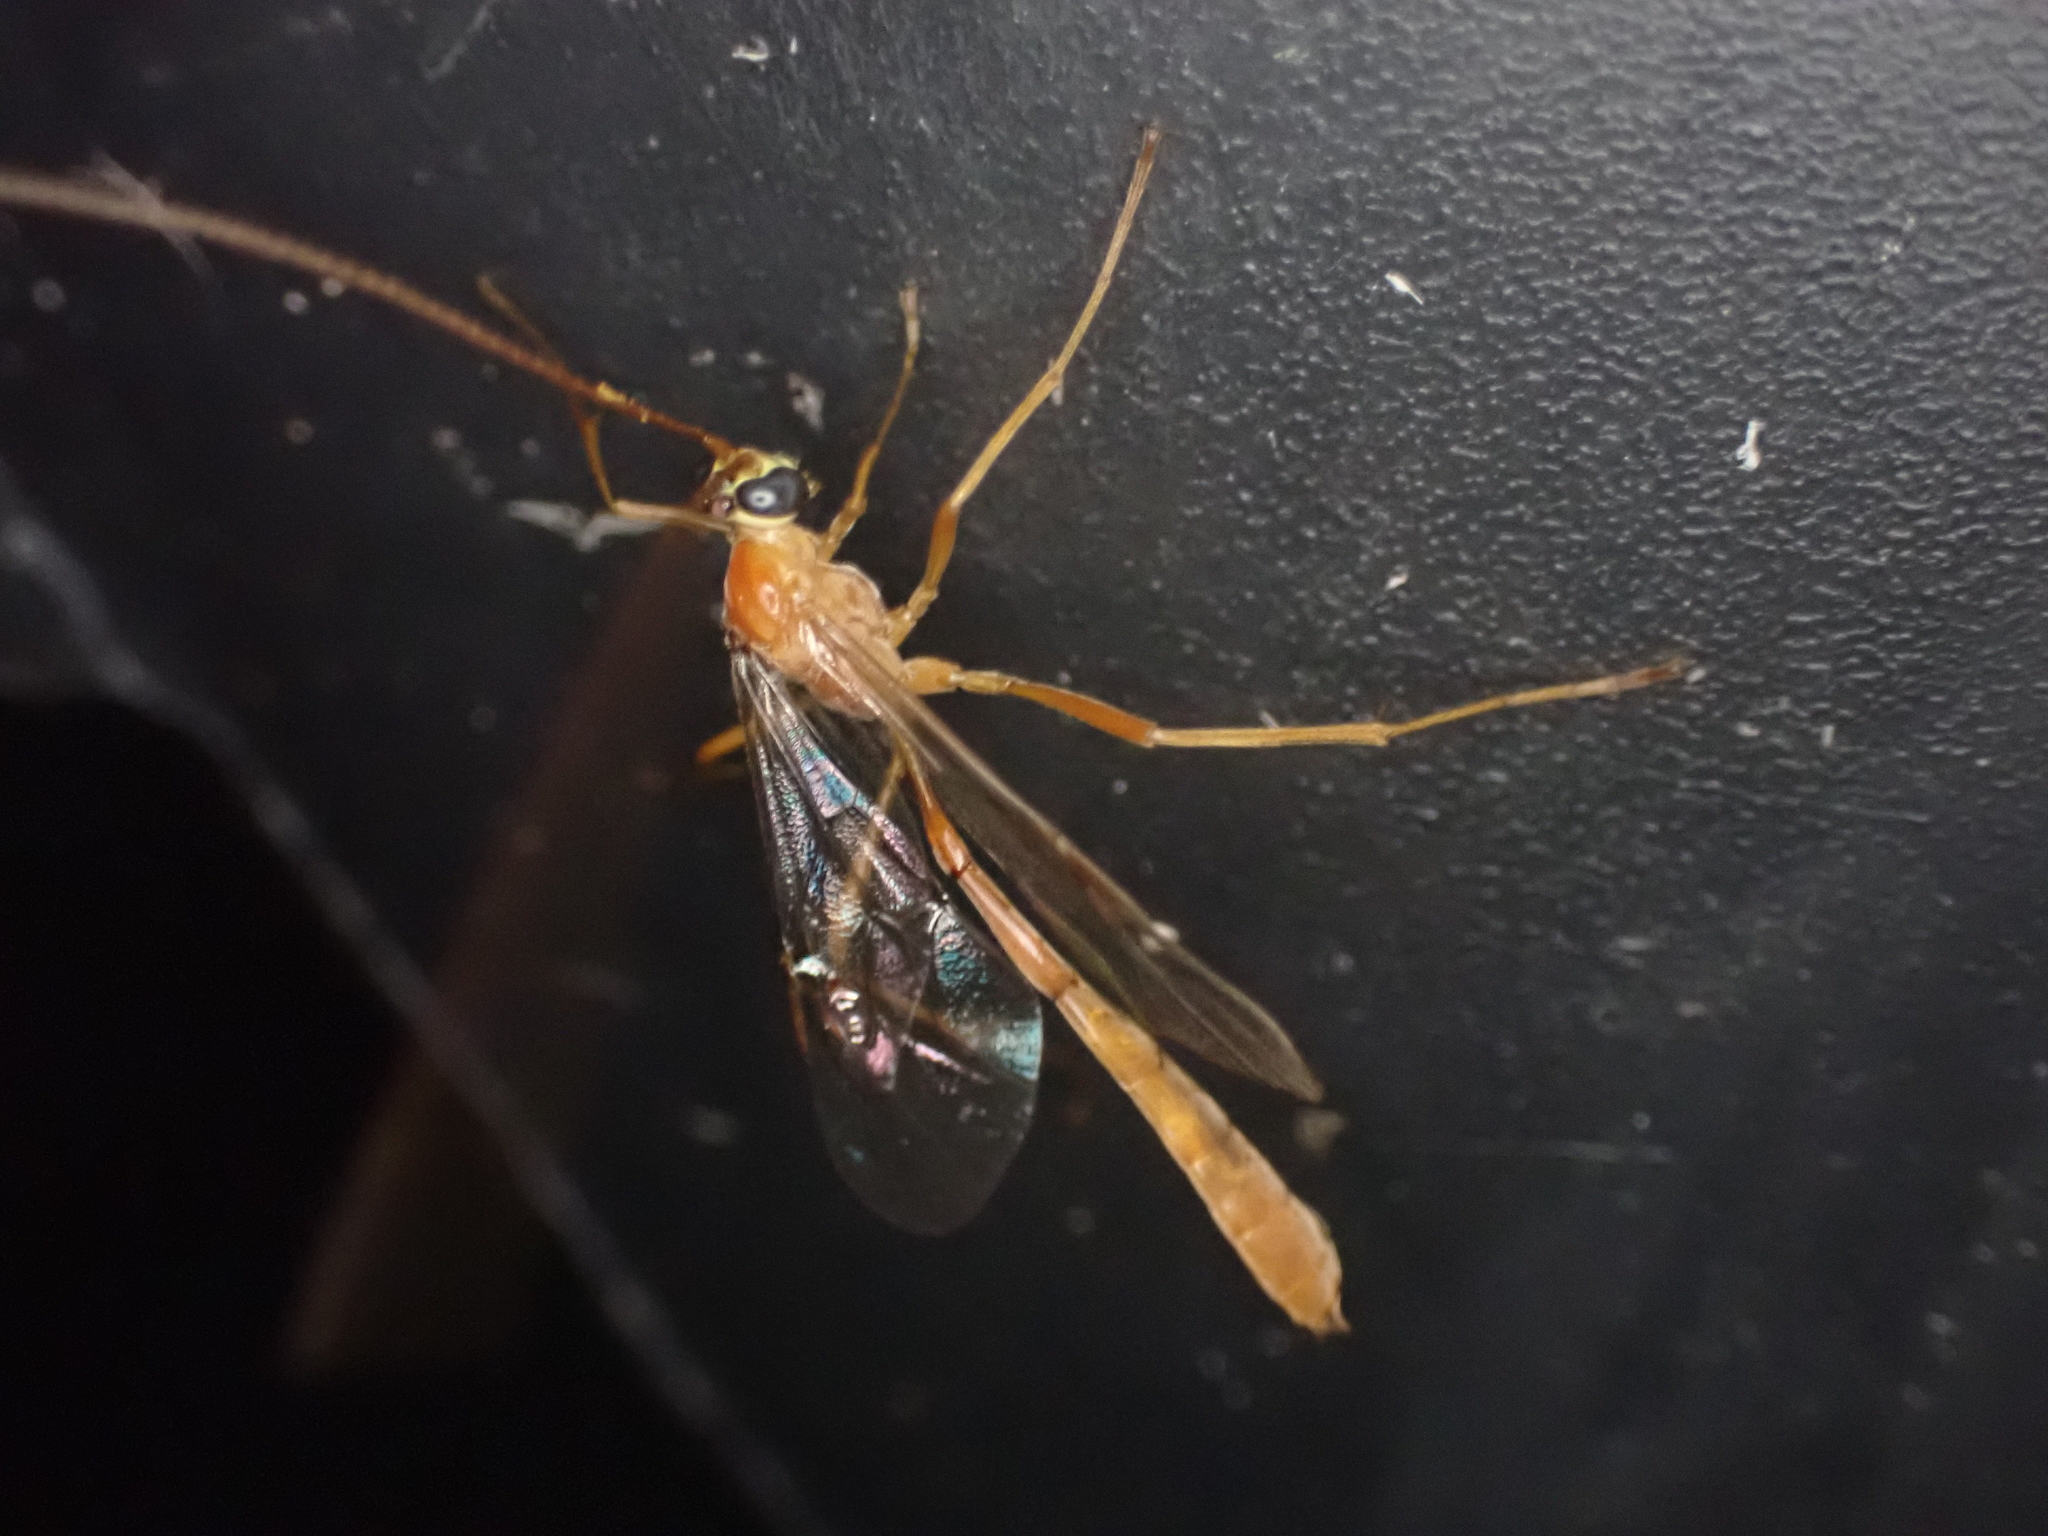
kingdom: Animalia
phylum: Arthropoda
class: Insecta
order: Hymenoptera
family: Ichneumonidae
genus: Enicospilus
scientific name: Enicospilus purgatus
